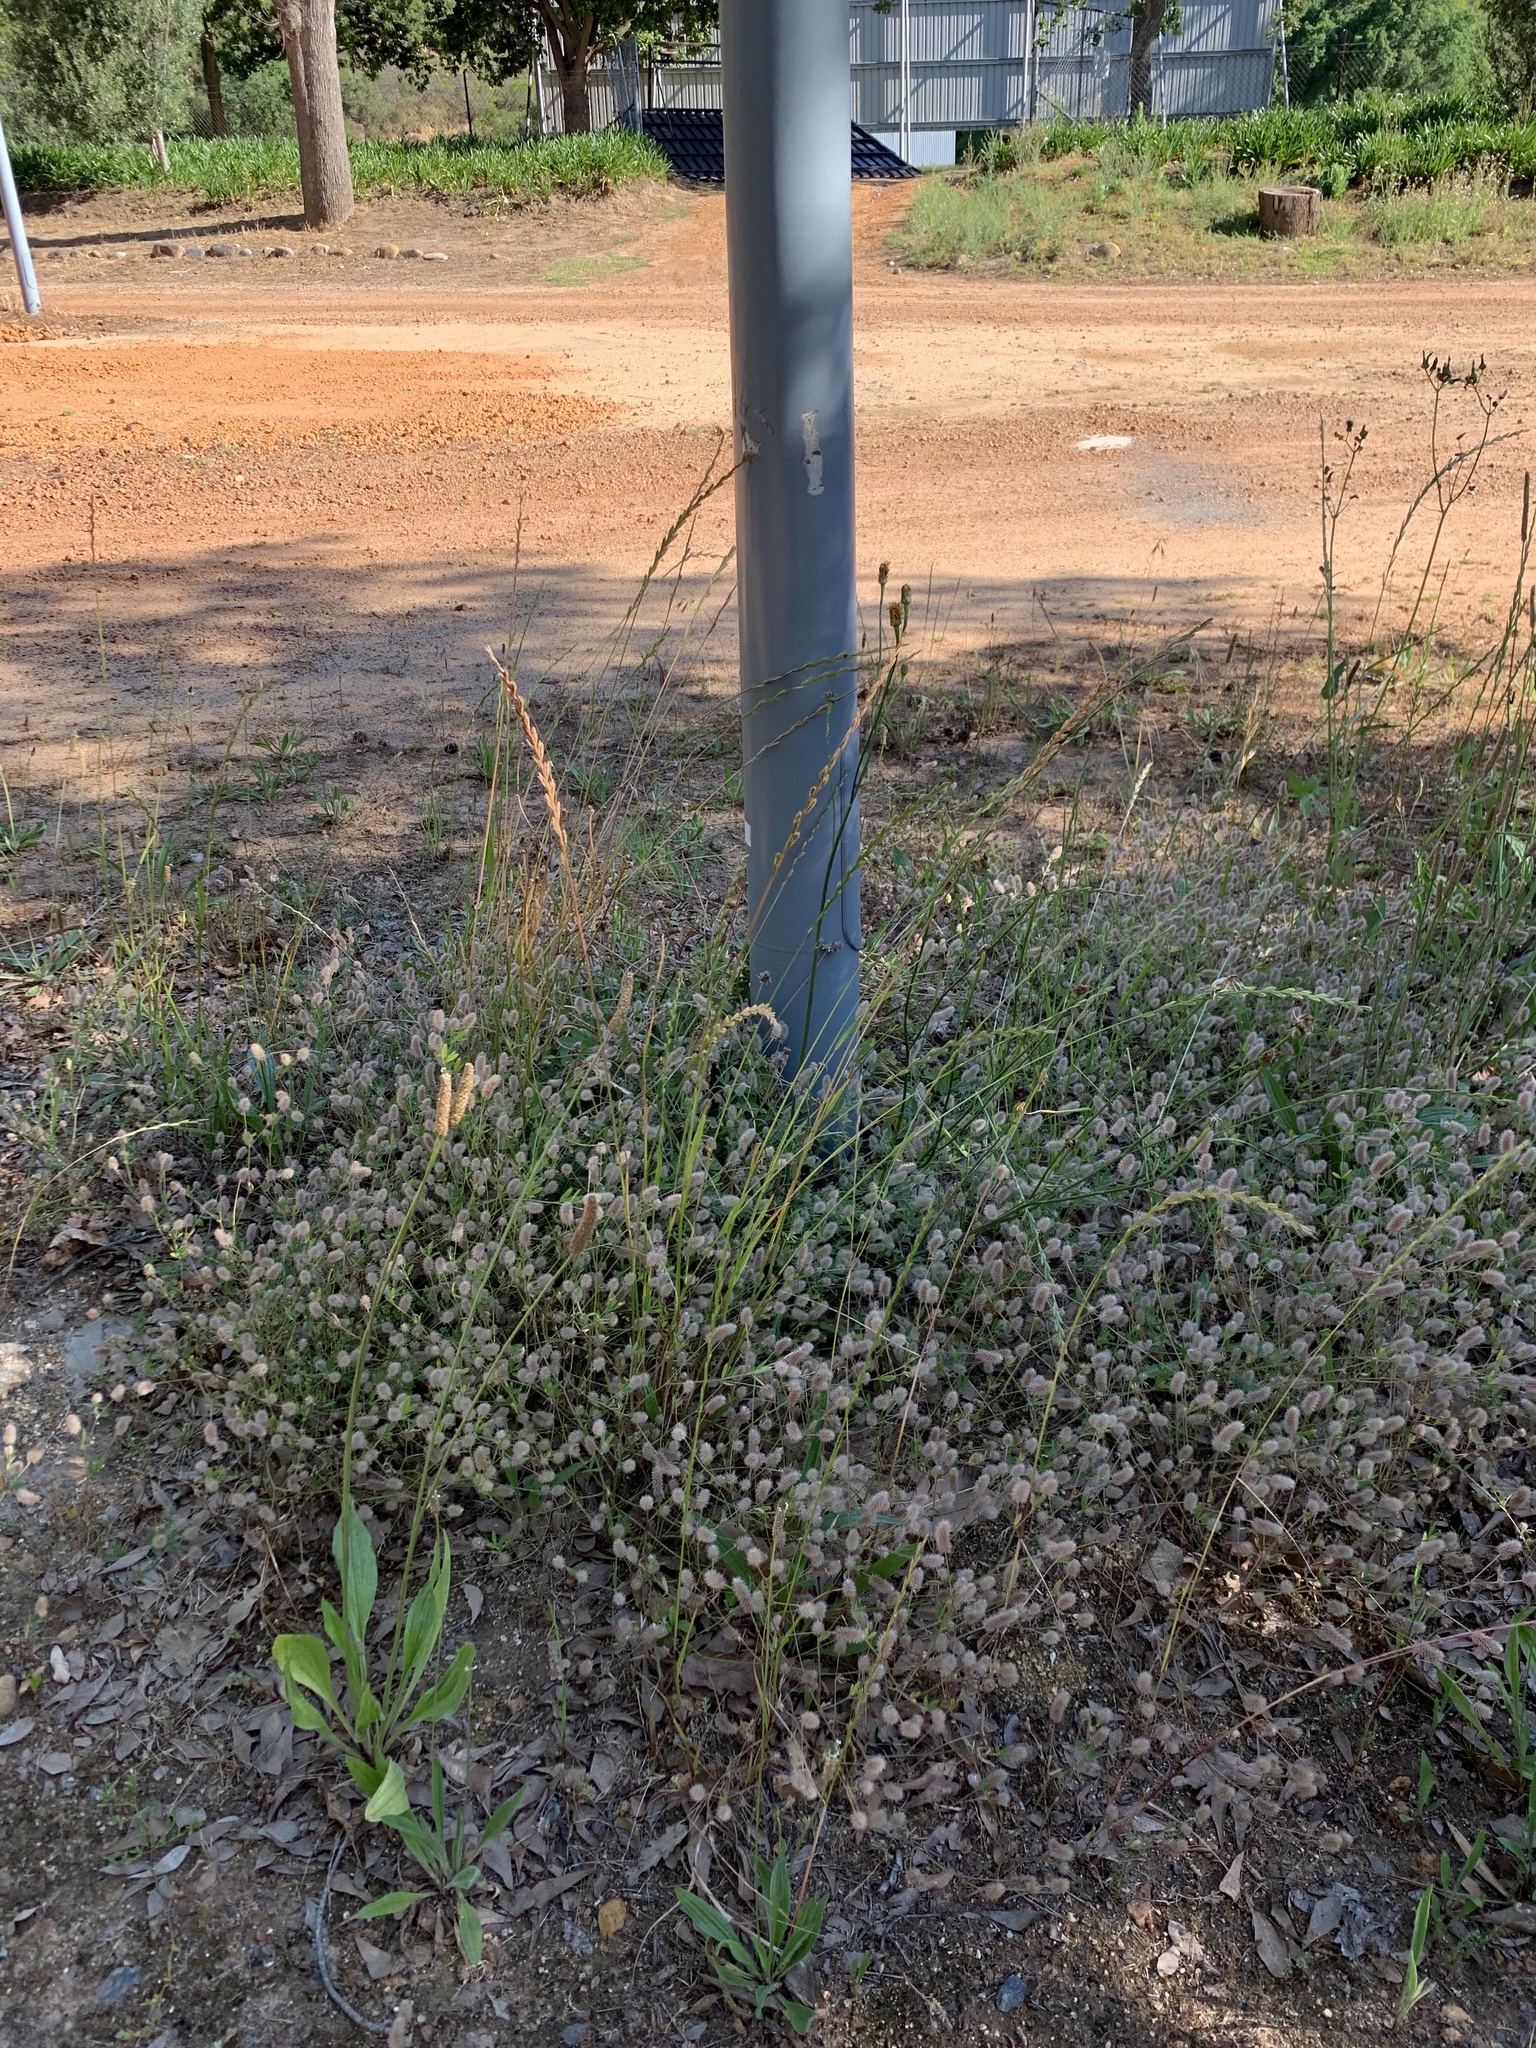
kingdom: Plantae
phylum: Tracheophyta
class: Magnoliopsida
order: Fabales
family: Fabaceae
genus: Trifolium
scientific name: Trifolium arvense
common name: Hare's-foot clover
